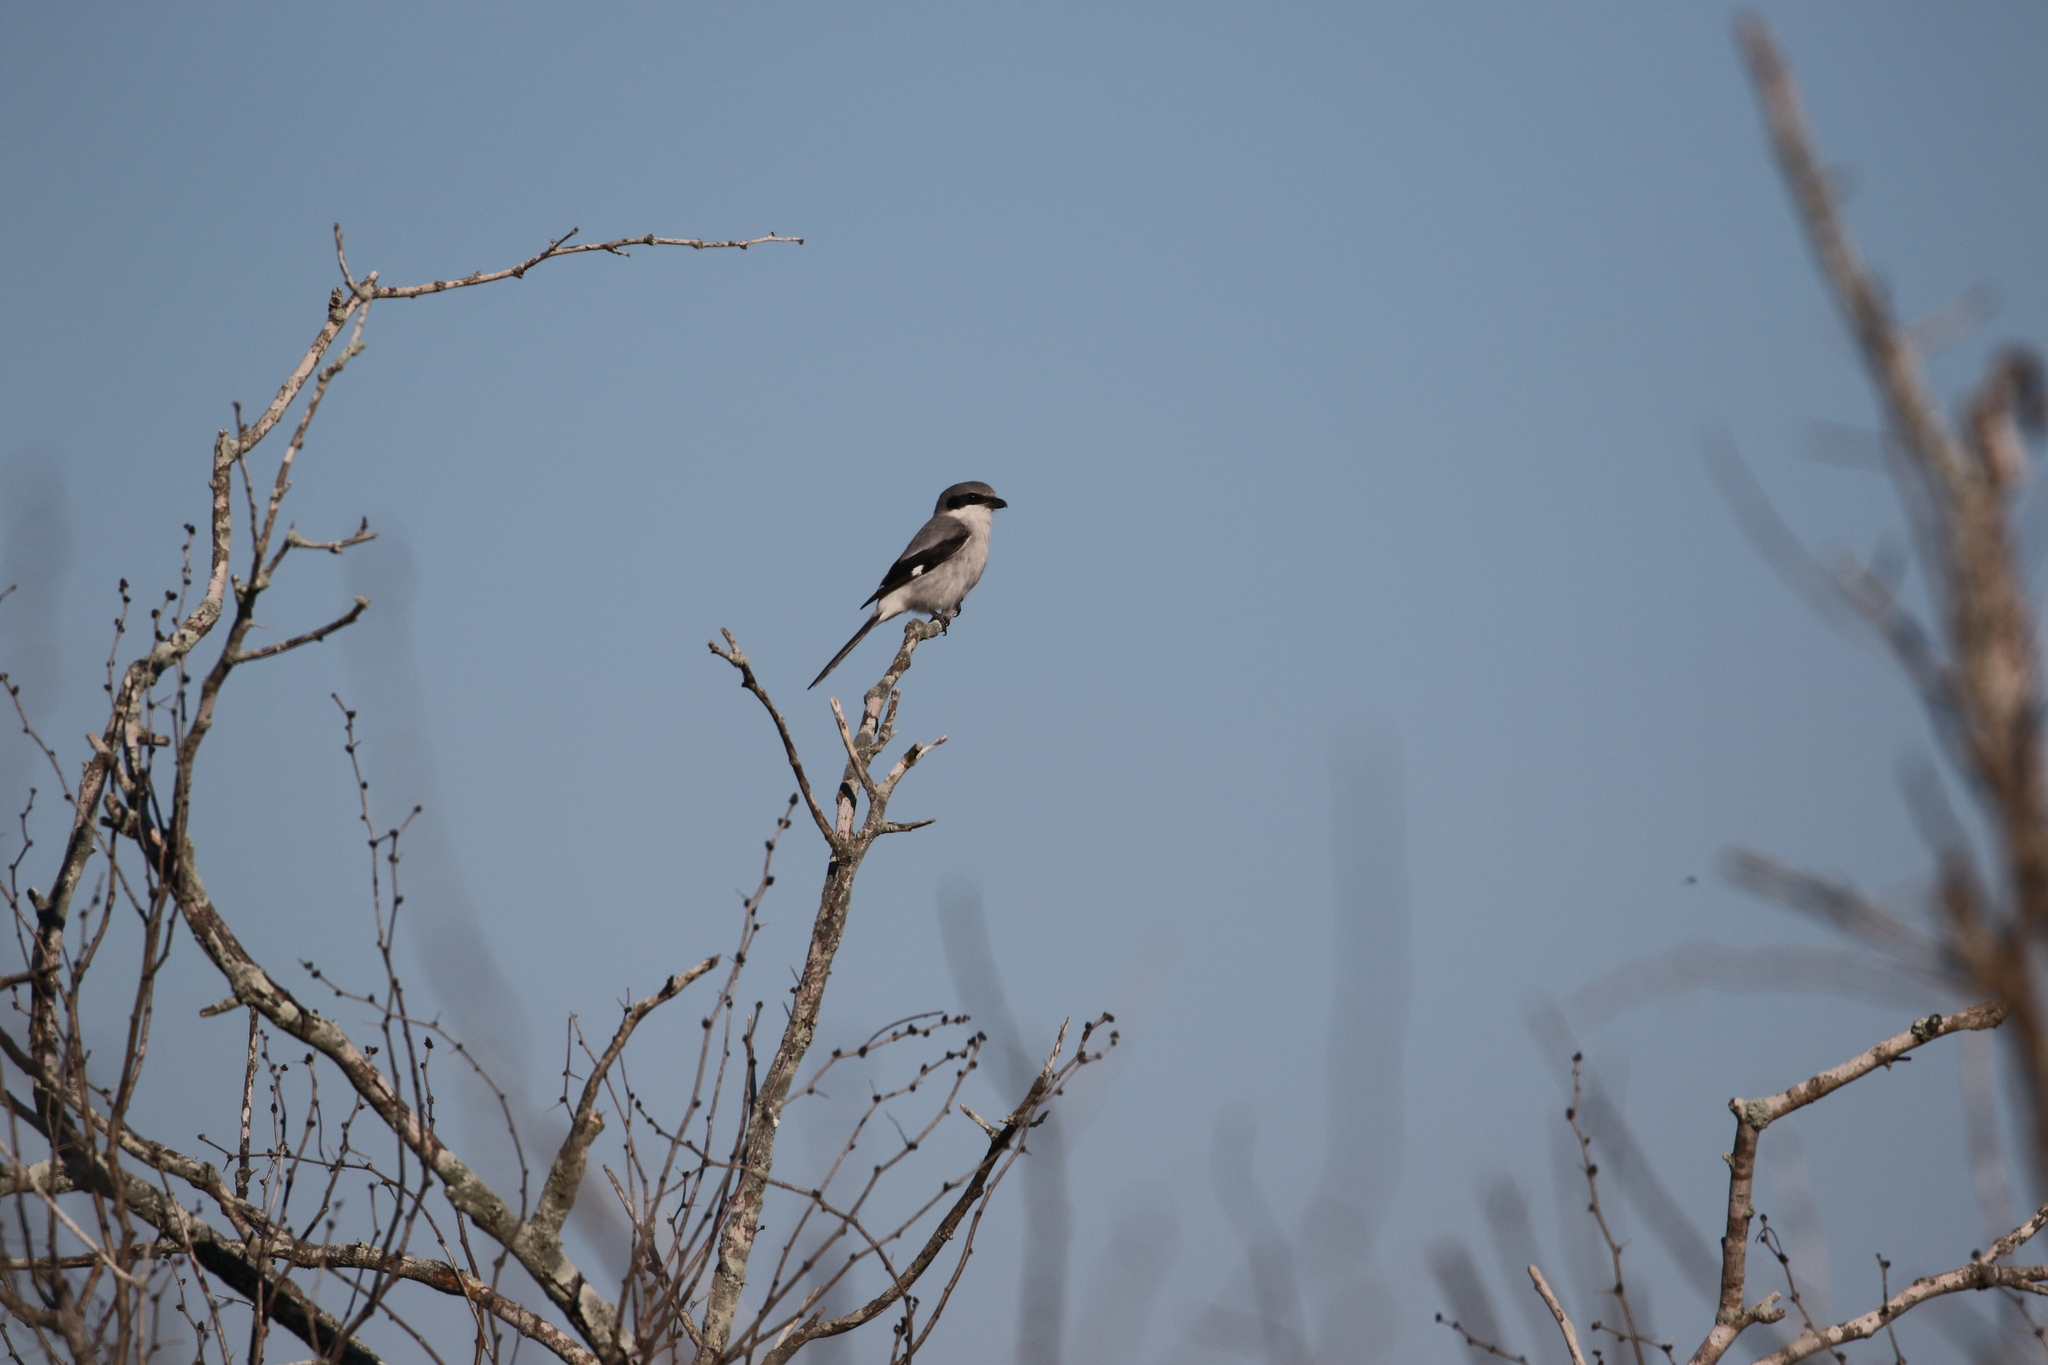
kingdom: Animalia
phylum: Chordata
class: Aves
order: Passeriformes
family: Laniidae
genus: Lanius
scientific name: Lanius ludovicianus
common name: Loggerhead shrike
